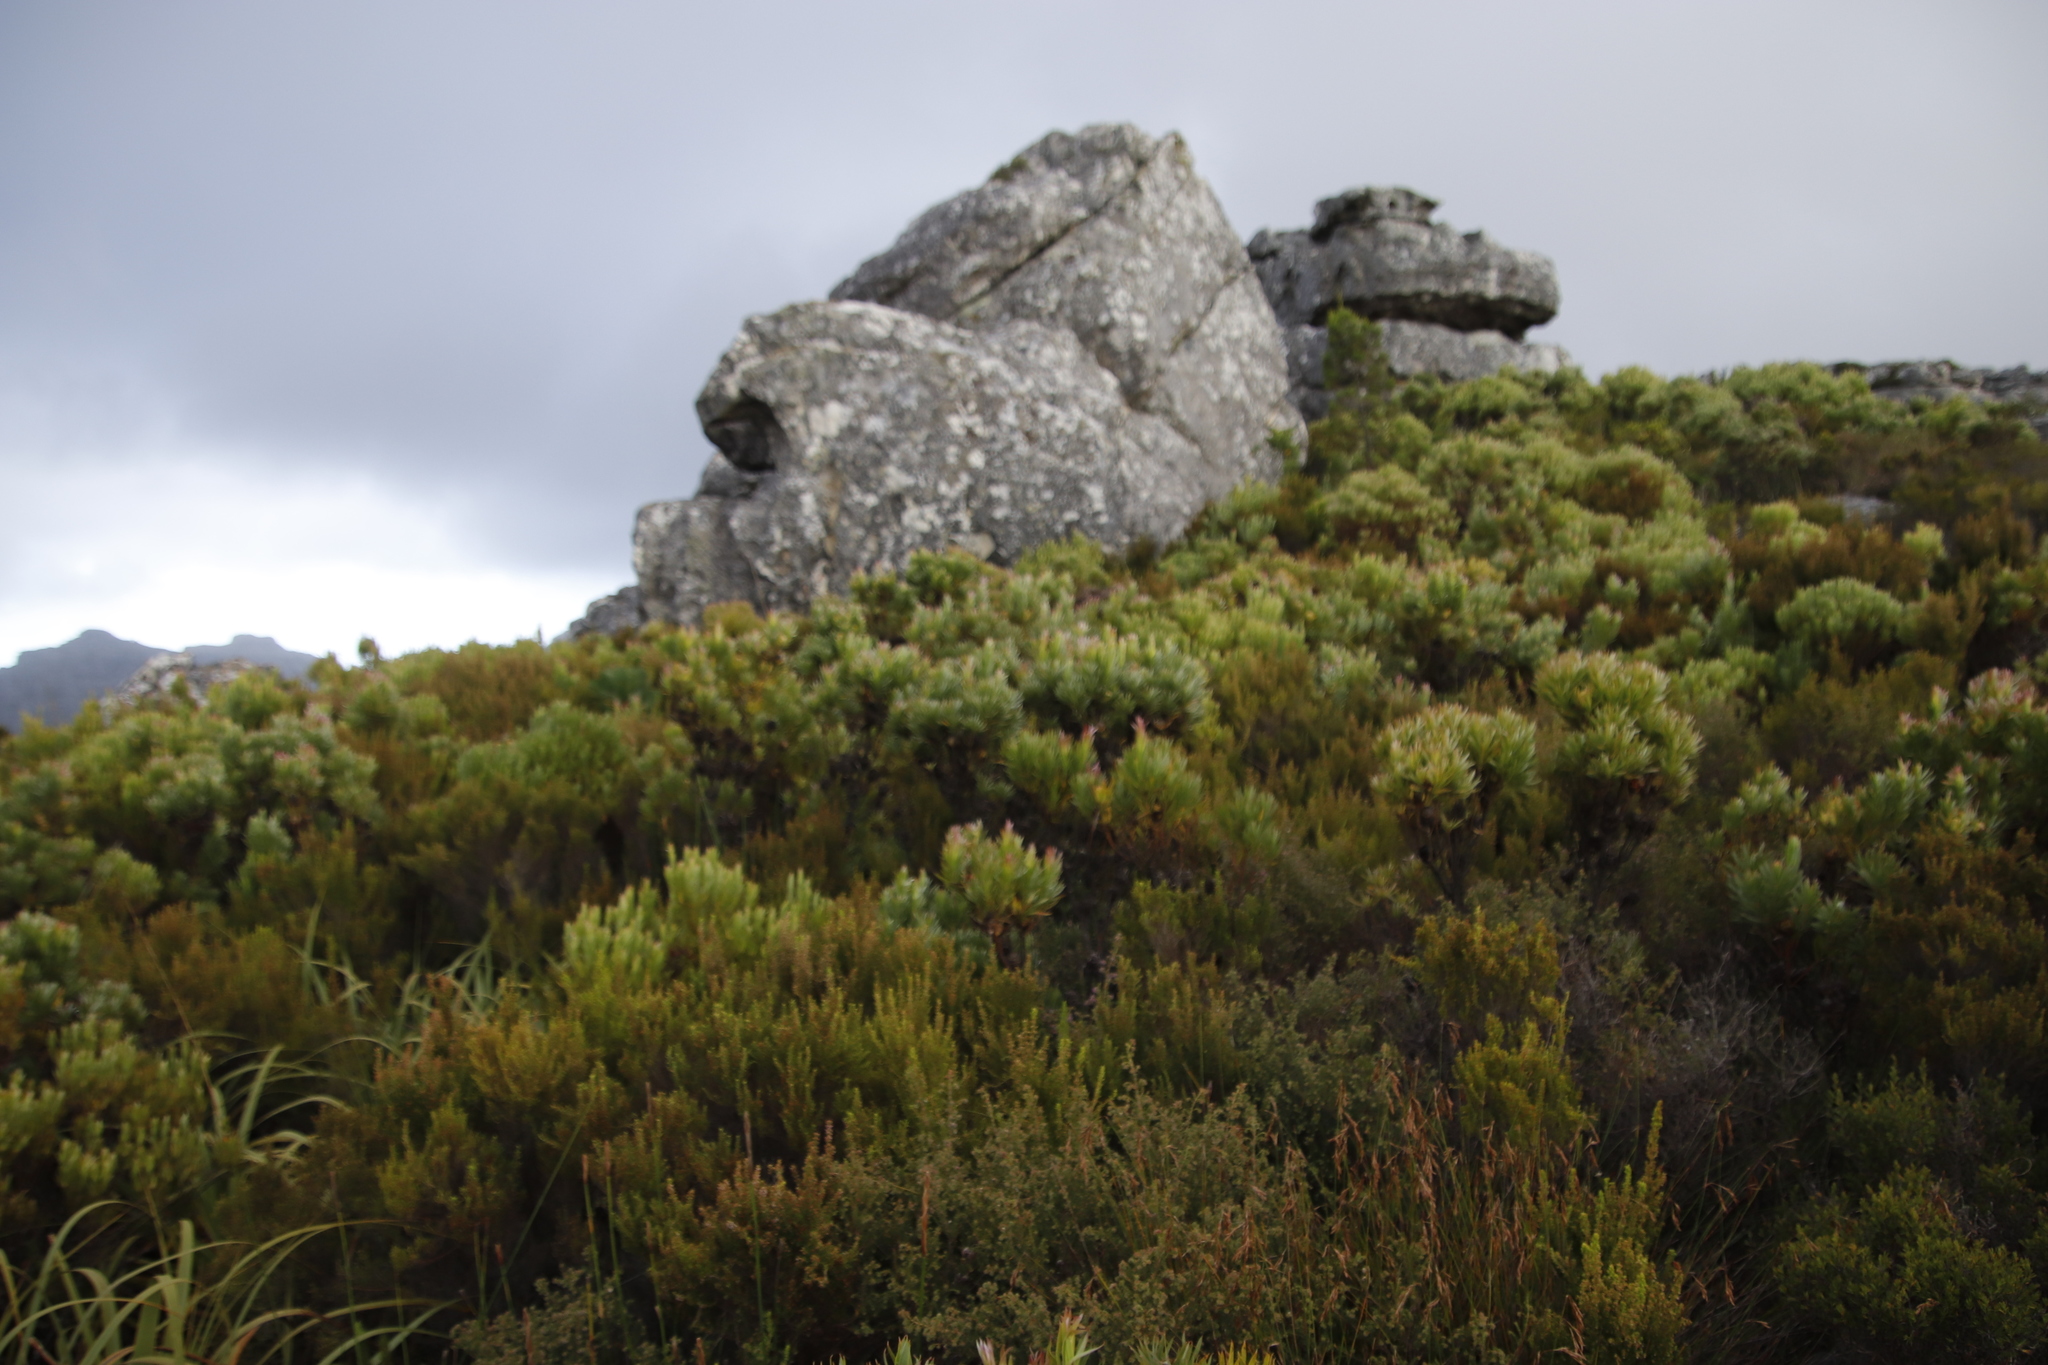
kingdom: Plantae
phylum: Tracheophyta
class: Magnoliopsida
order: Proteales
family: Proteaceae
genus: Leucadendron
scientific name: Leucadendron xanthoconus
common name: Sickle-leaf conebush
